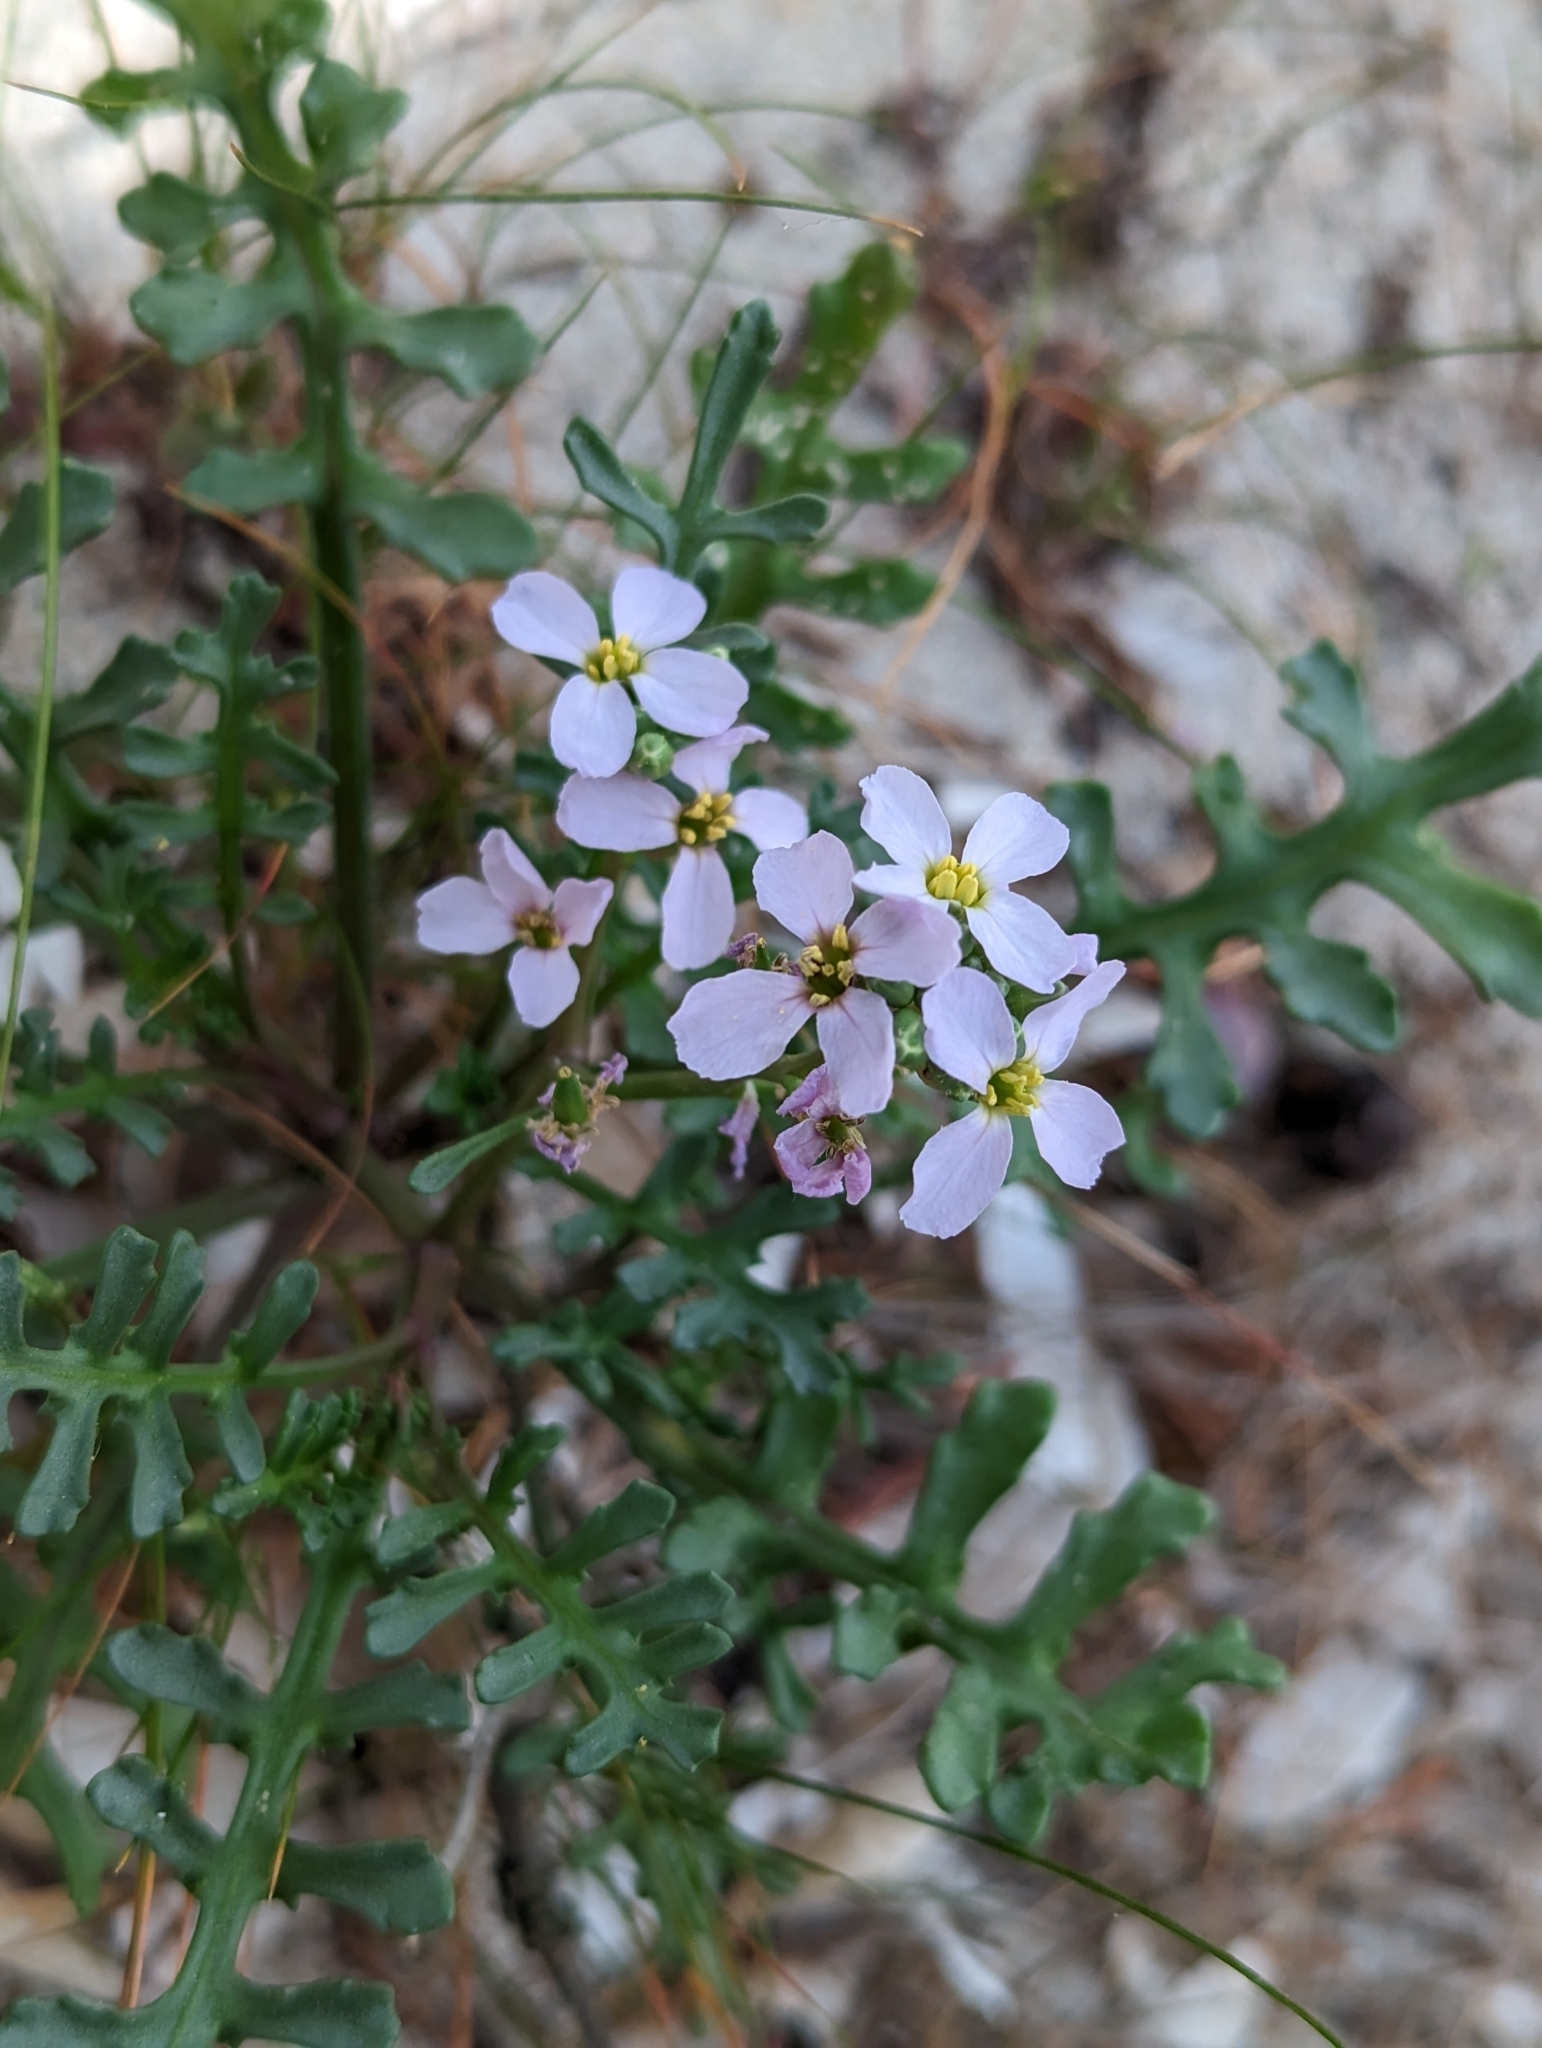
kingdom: Plantae
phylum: Tracheophyta
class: Magnoliopsida
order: Brassicales
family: Brassicaceae
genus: Cakile
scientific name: Cakile maritima
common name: Sea rocket
